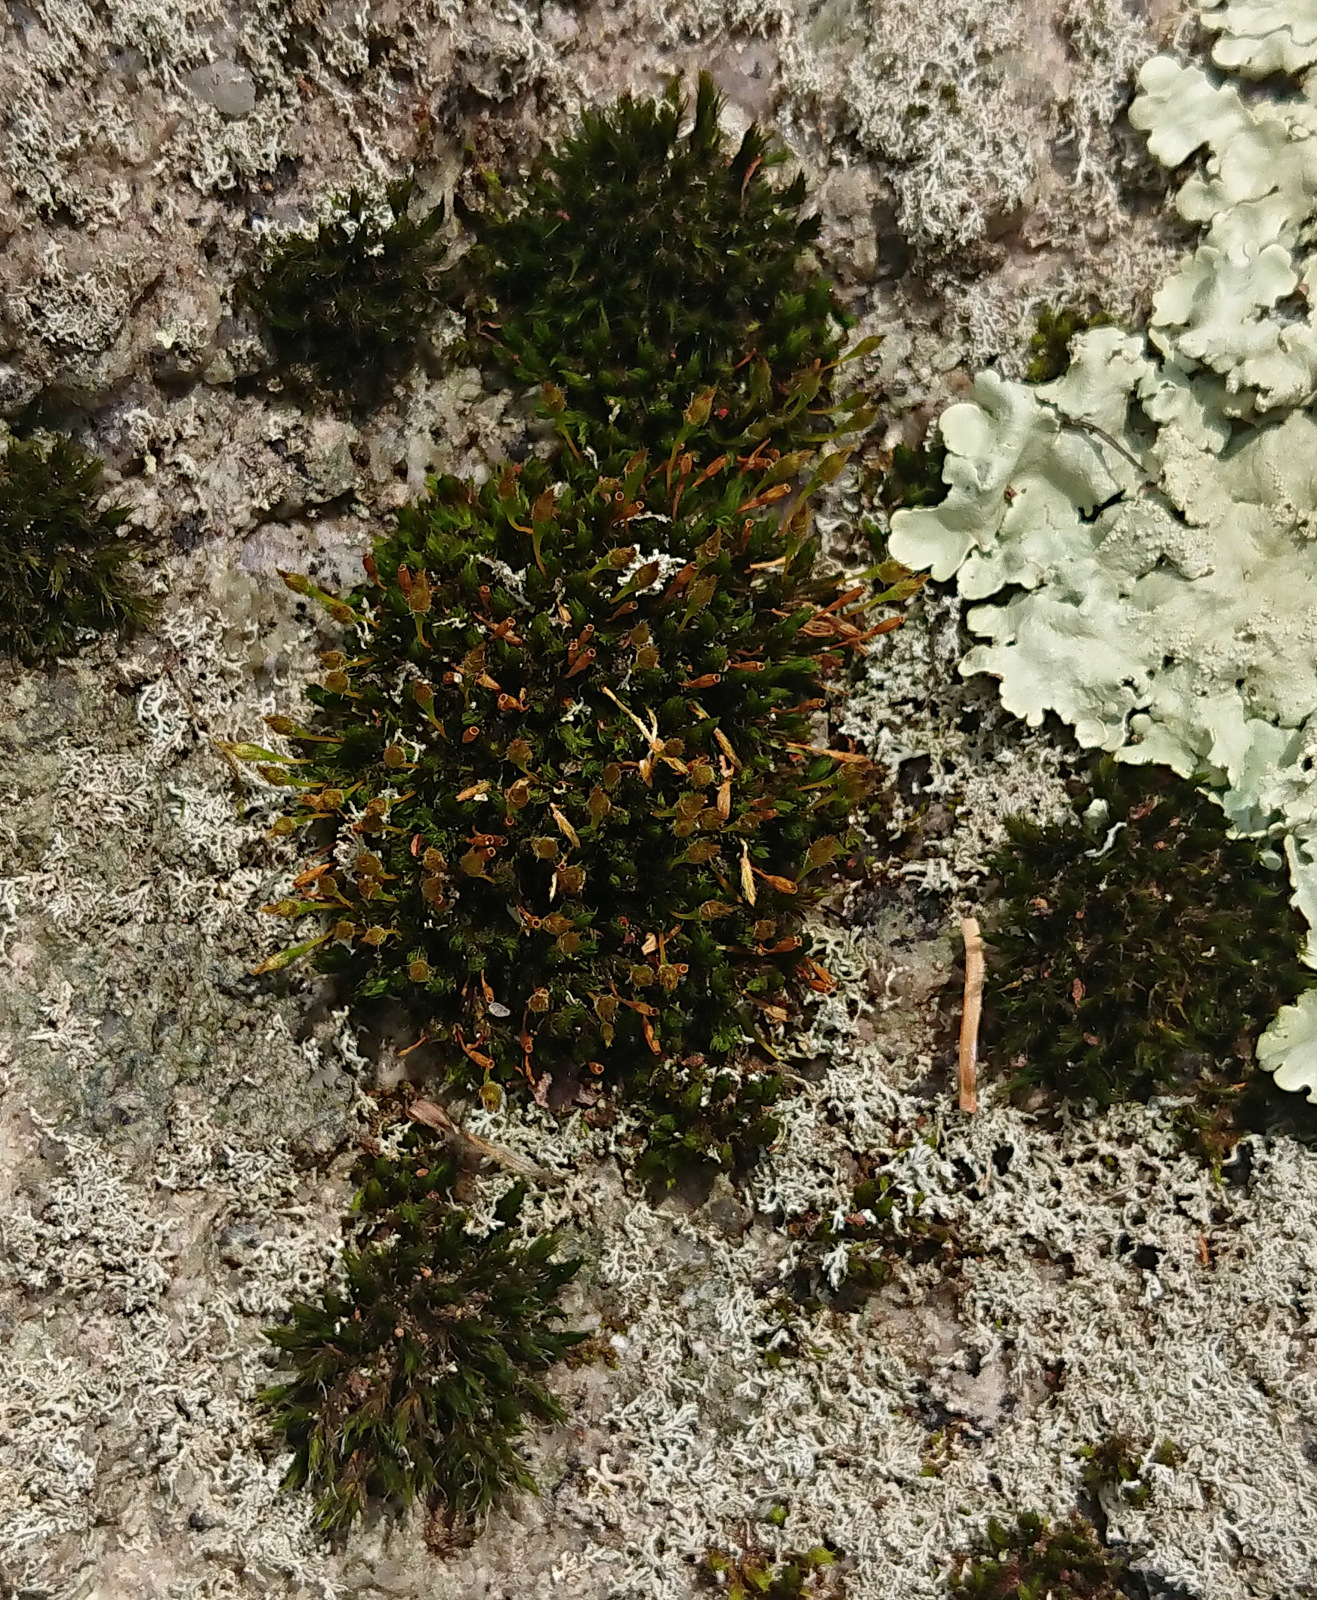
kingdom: Plantae
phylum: Bryophyta
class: Bryopsida
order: Orthotrichales
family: Orthotrichaceae
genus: Ulota
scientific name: Ulota hutchinsiae
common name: Hutchins' pincushion
